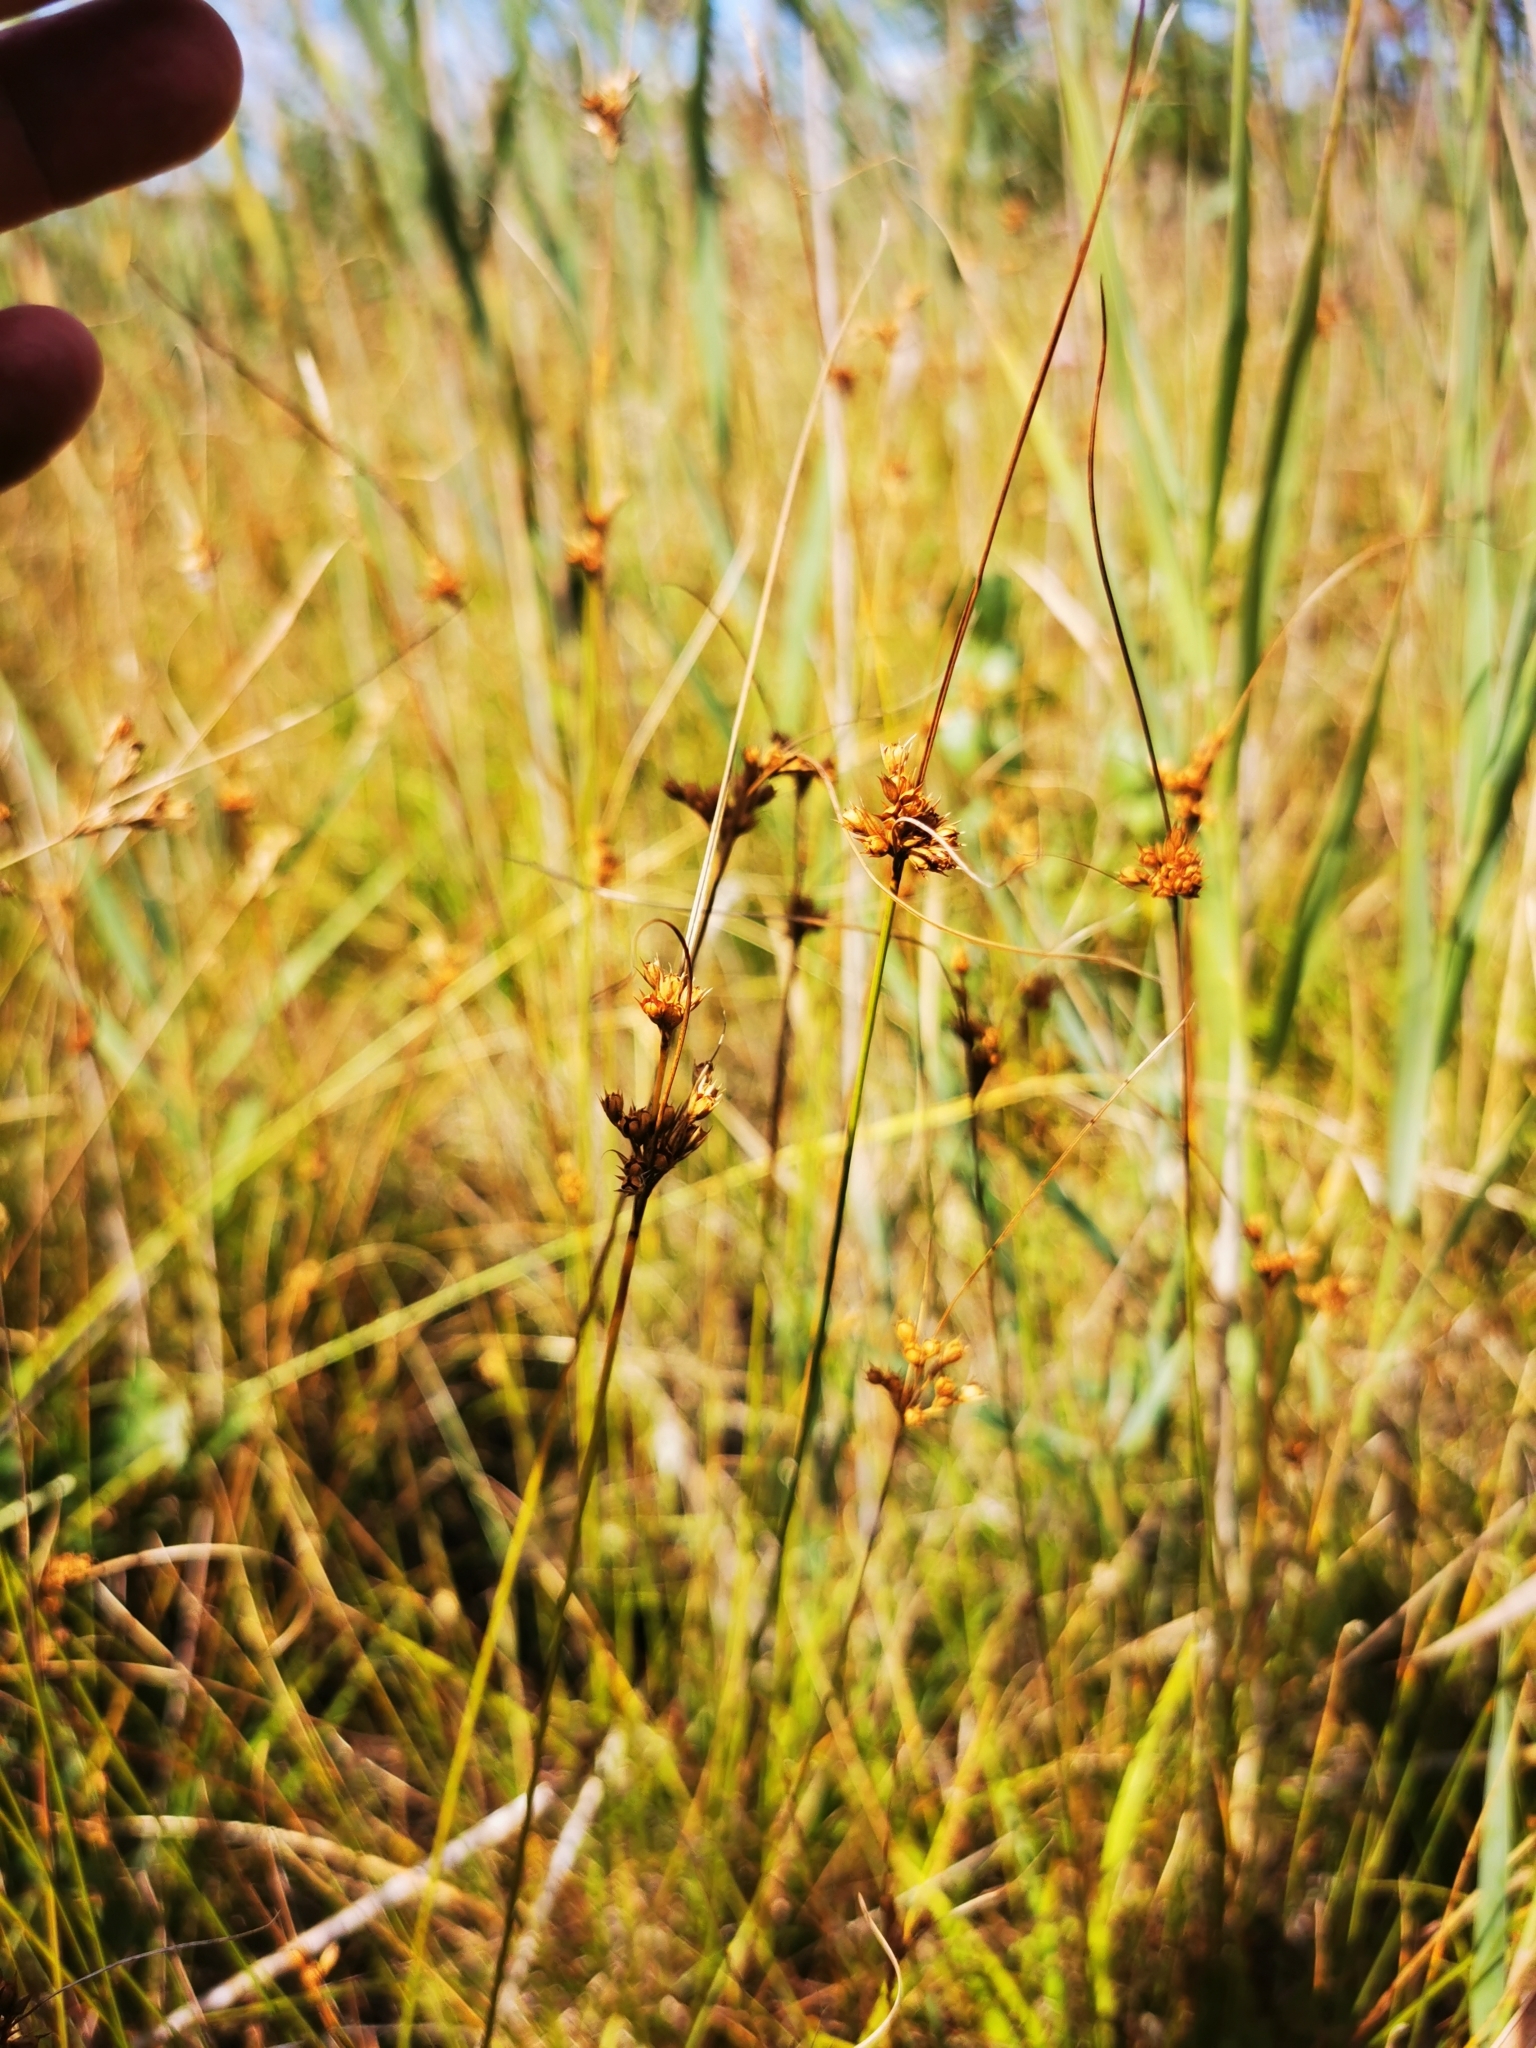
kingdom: Plantae
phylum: Tracheophyta
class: Liliopsida
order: Poales
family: Juncaceae
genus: Juncus
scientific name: Juncus tenuis
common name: Slender rush
